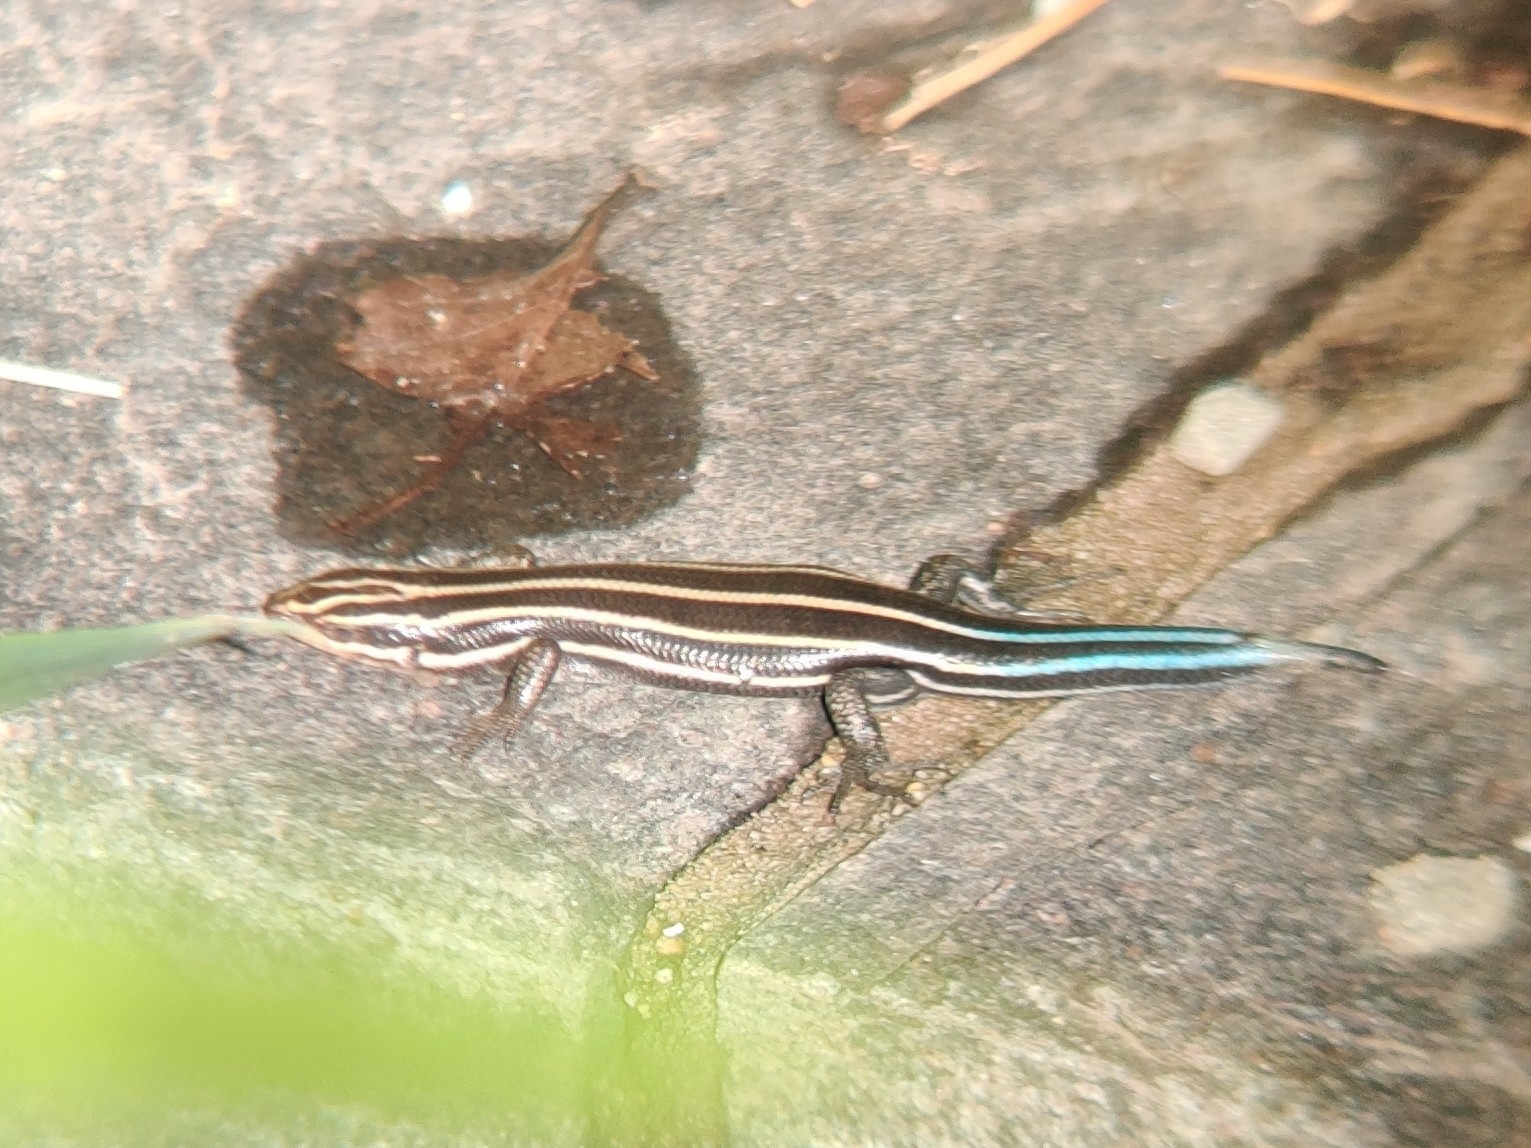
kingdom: Animalia
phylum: Chordata
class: Squamata
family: Scincidae
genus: Plestiodon
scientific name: Plestiodon fasciatus
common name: Five-lined skink
